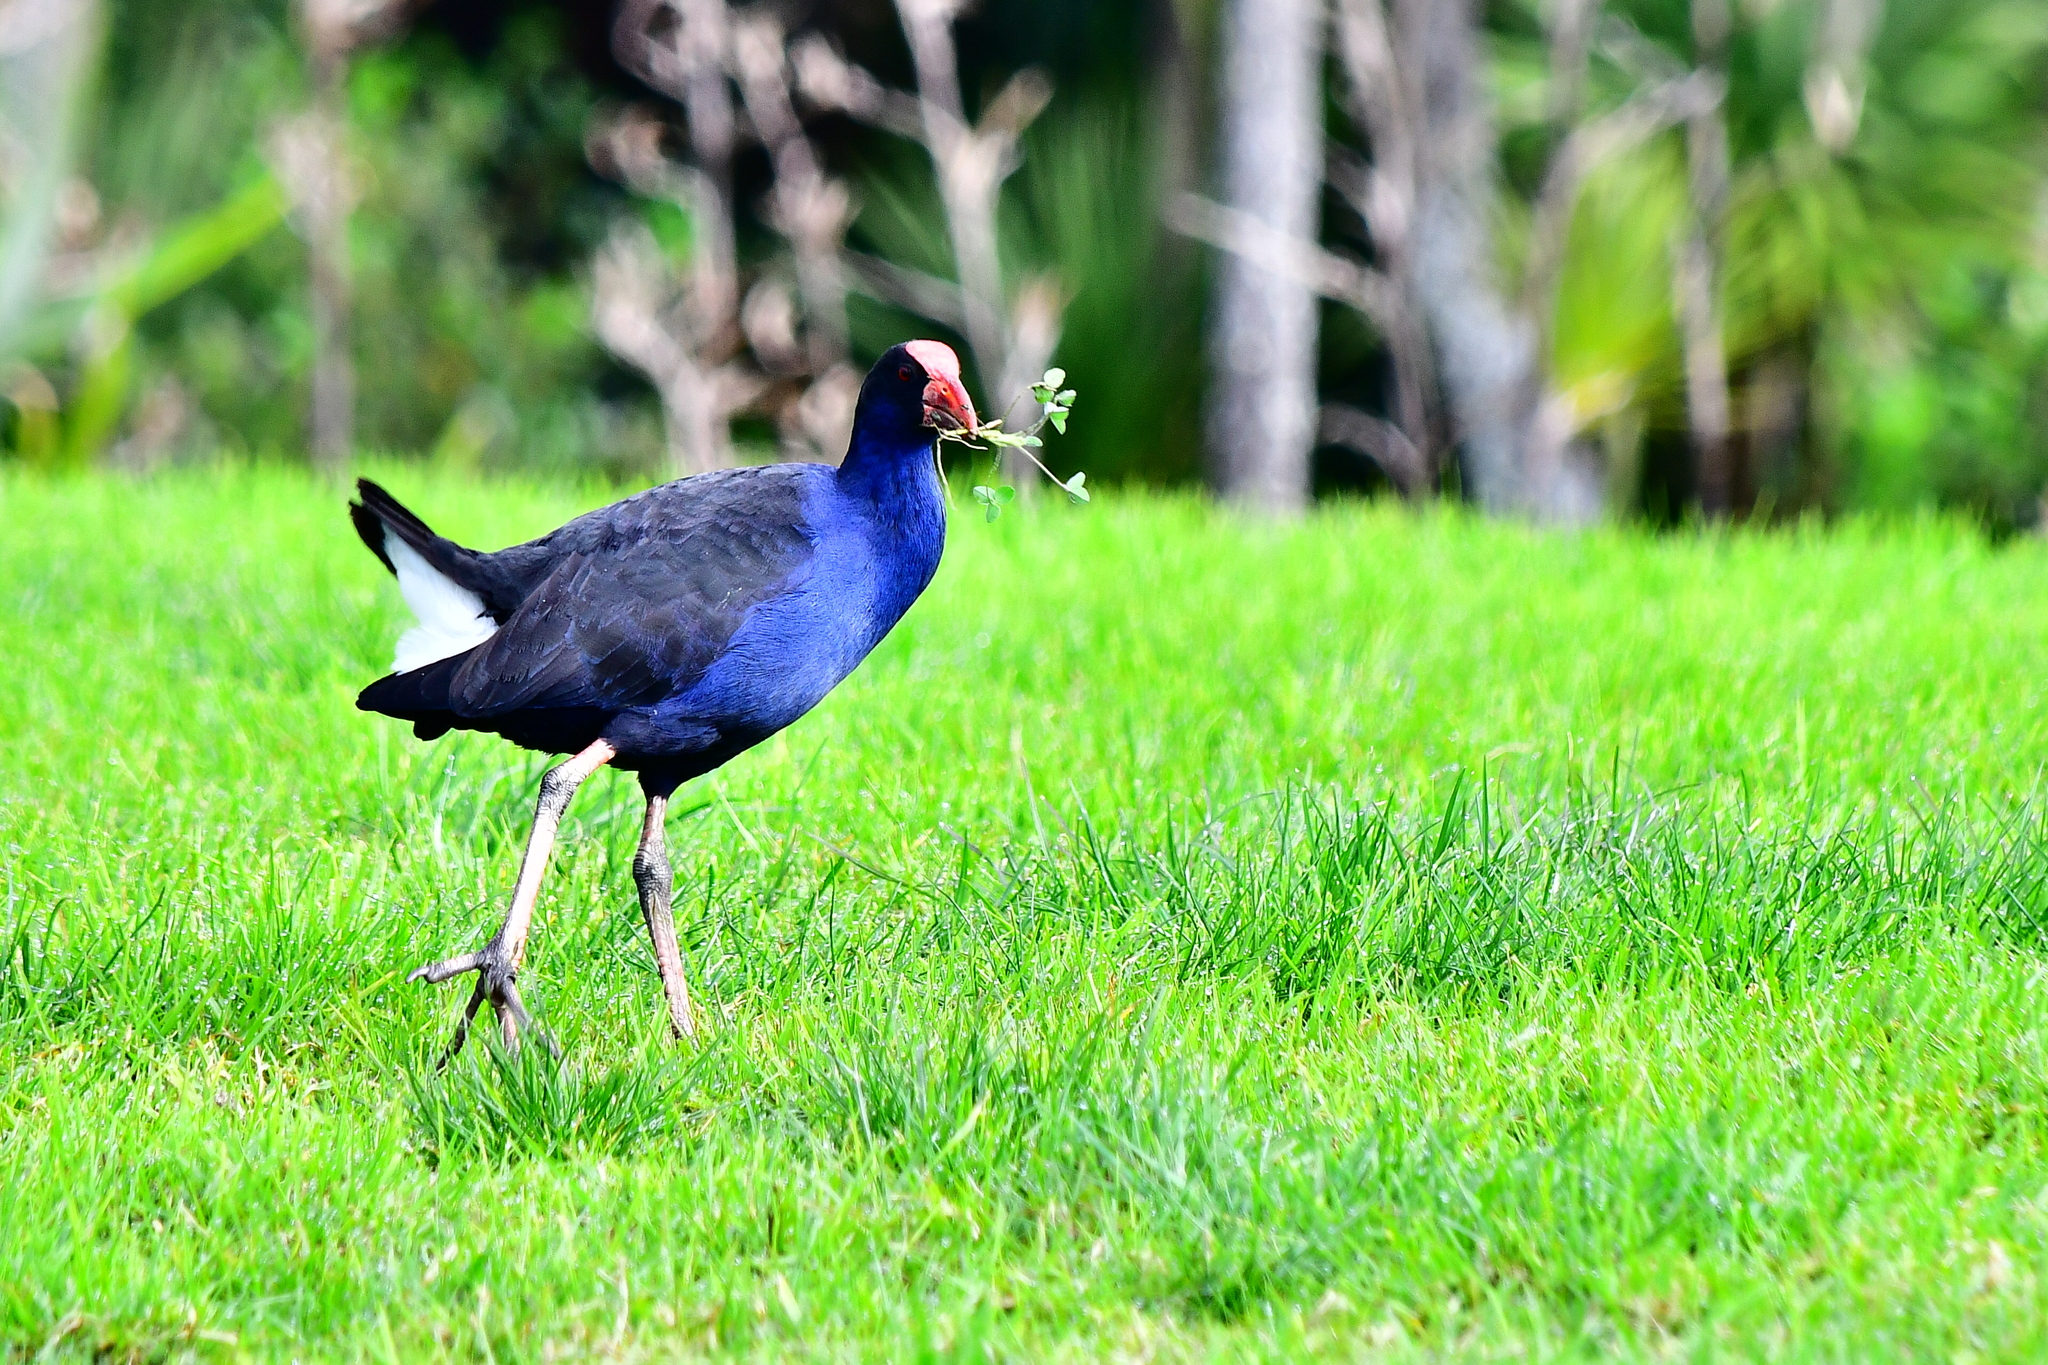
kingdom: Animalia
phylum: Chordata
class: Aves
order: Gruiformes
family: Rallidae
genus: Porphyrio
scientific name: Porphyrio melanotus
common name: Australasian swamphen
